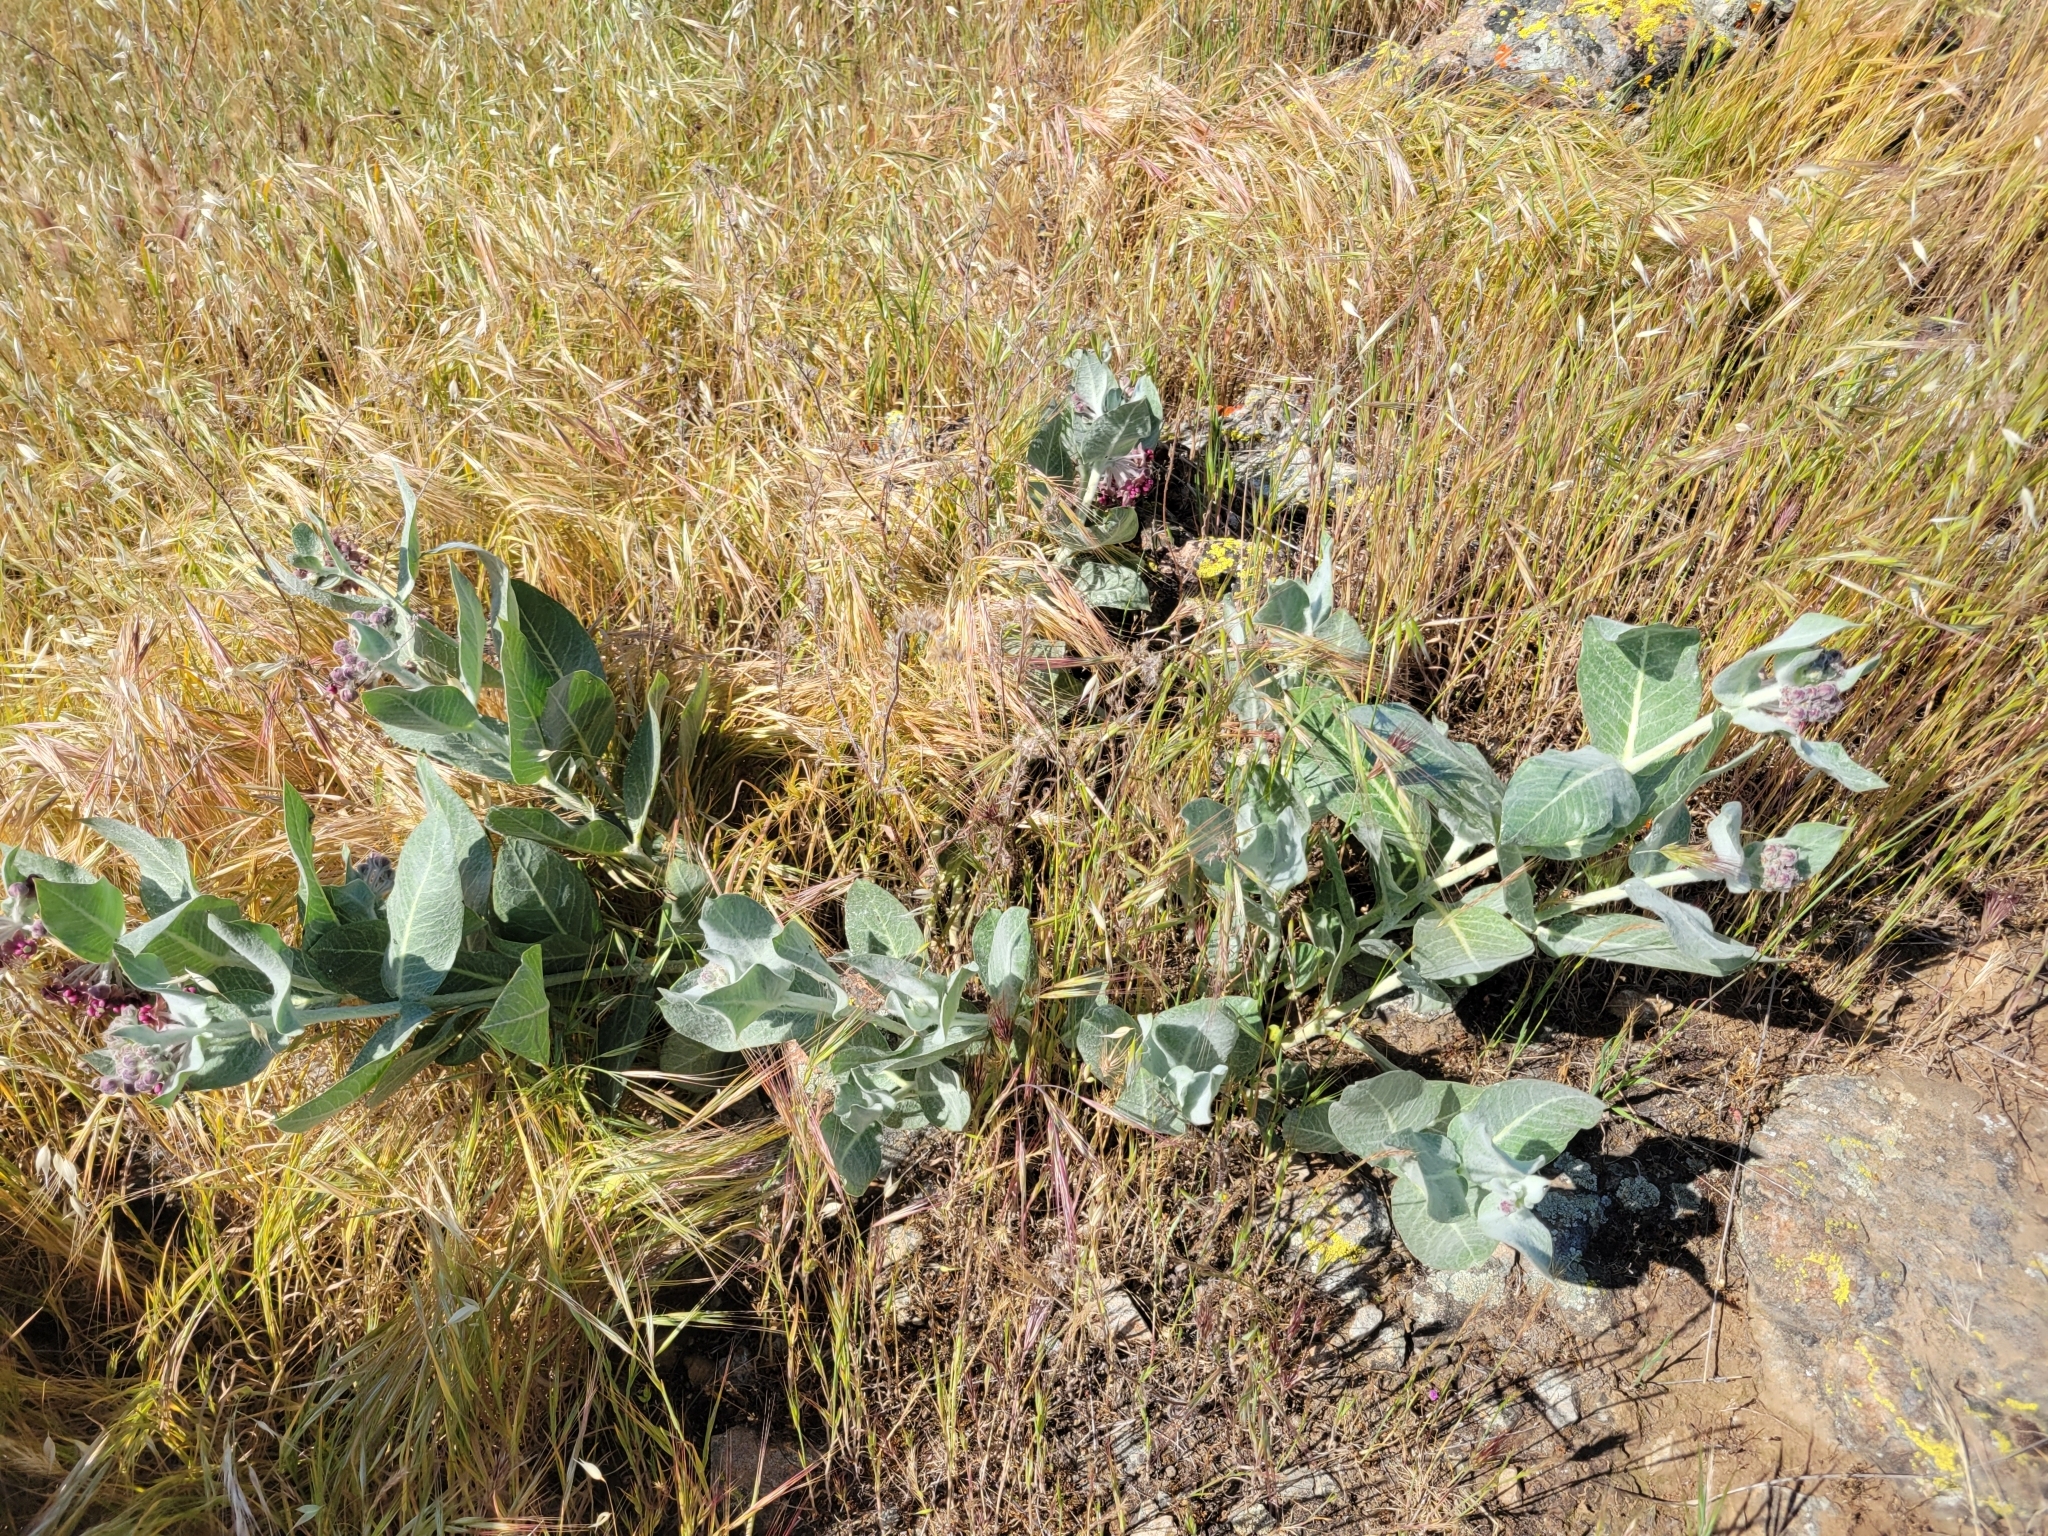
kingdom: Plantae
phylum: Tracheophyta
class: Magnoliopsida
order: Gentianales
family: Apocynaceae
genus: Asclepias
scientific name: Asclepias californica
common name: California milkweed
